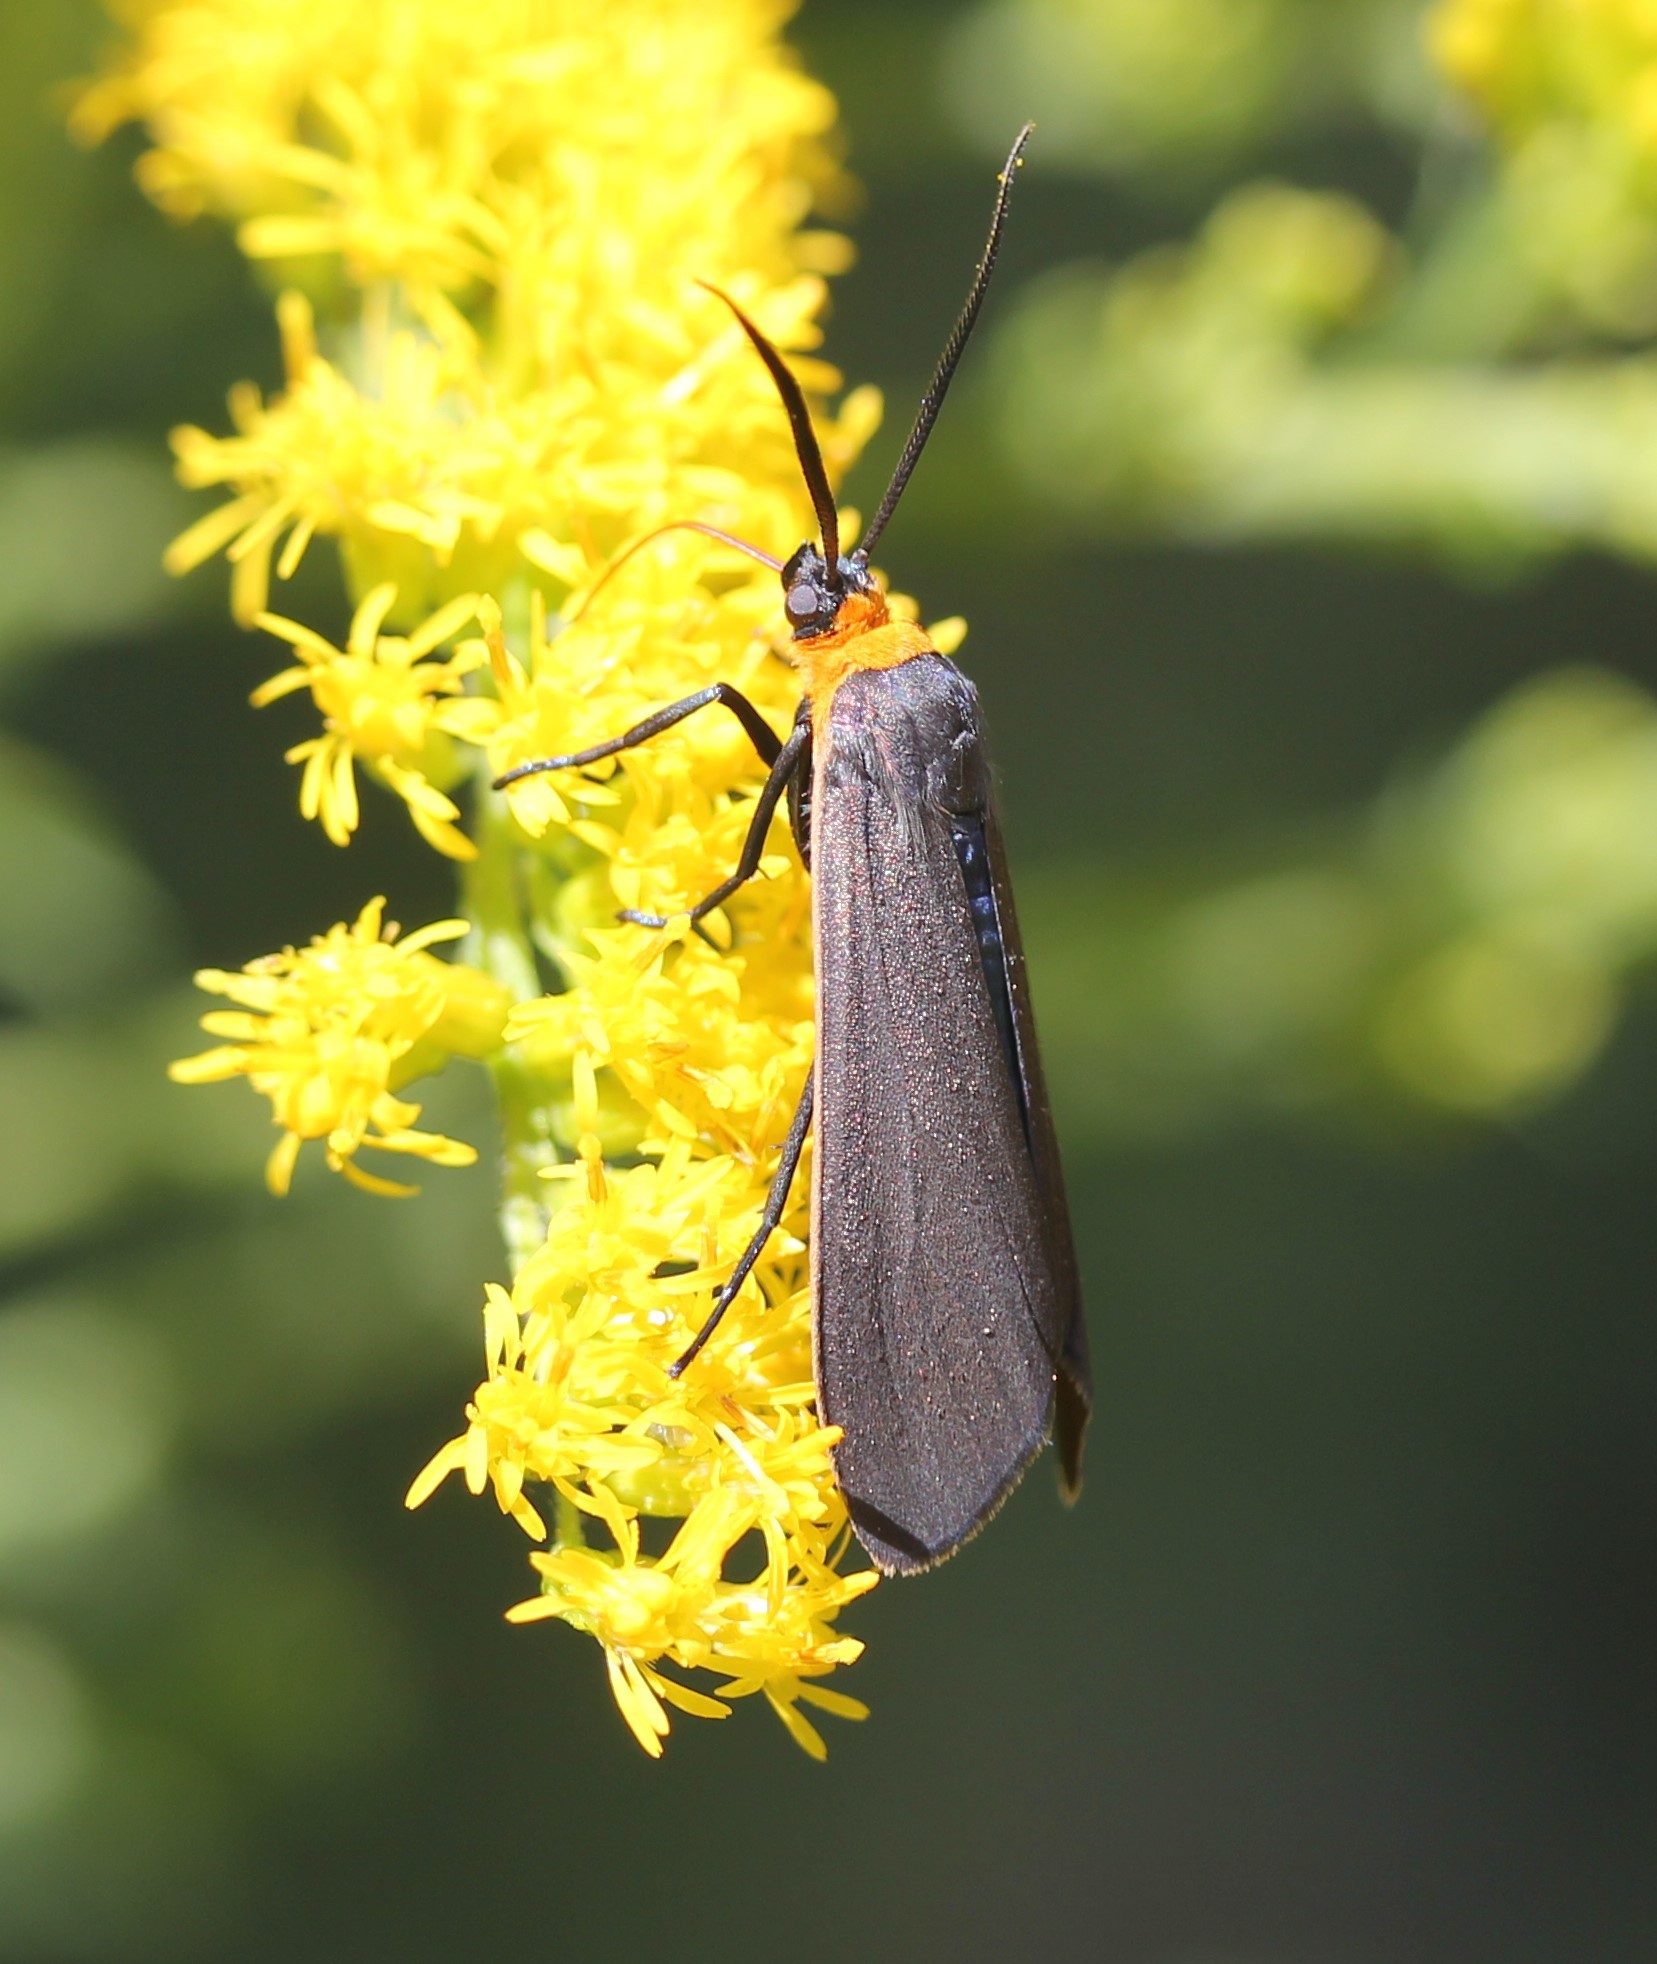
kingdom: Animalia
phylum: Arthropoda
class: Insecta
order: Lepidoptera
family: Erebidae
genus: Cisseps
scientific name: Cisseps fulvicollis
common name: Yellow-collared scape moth
